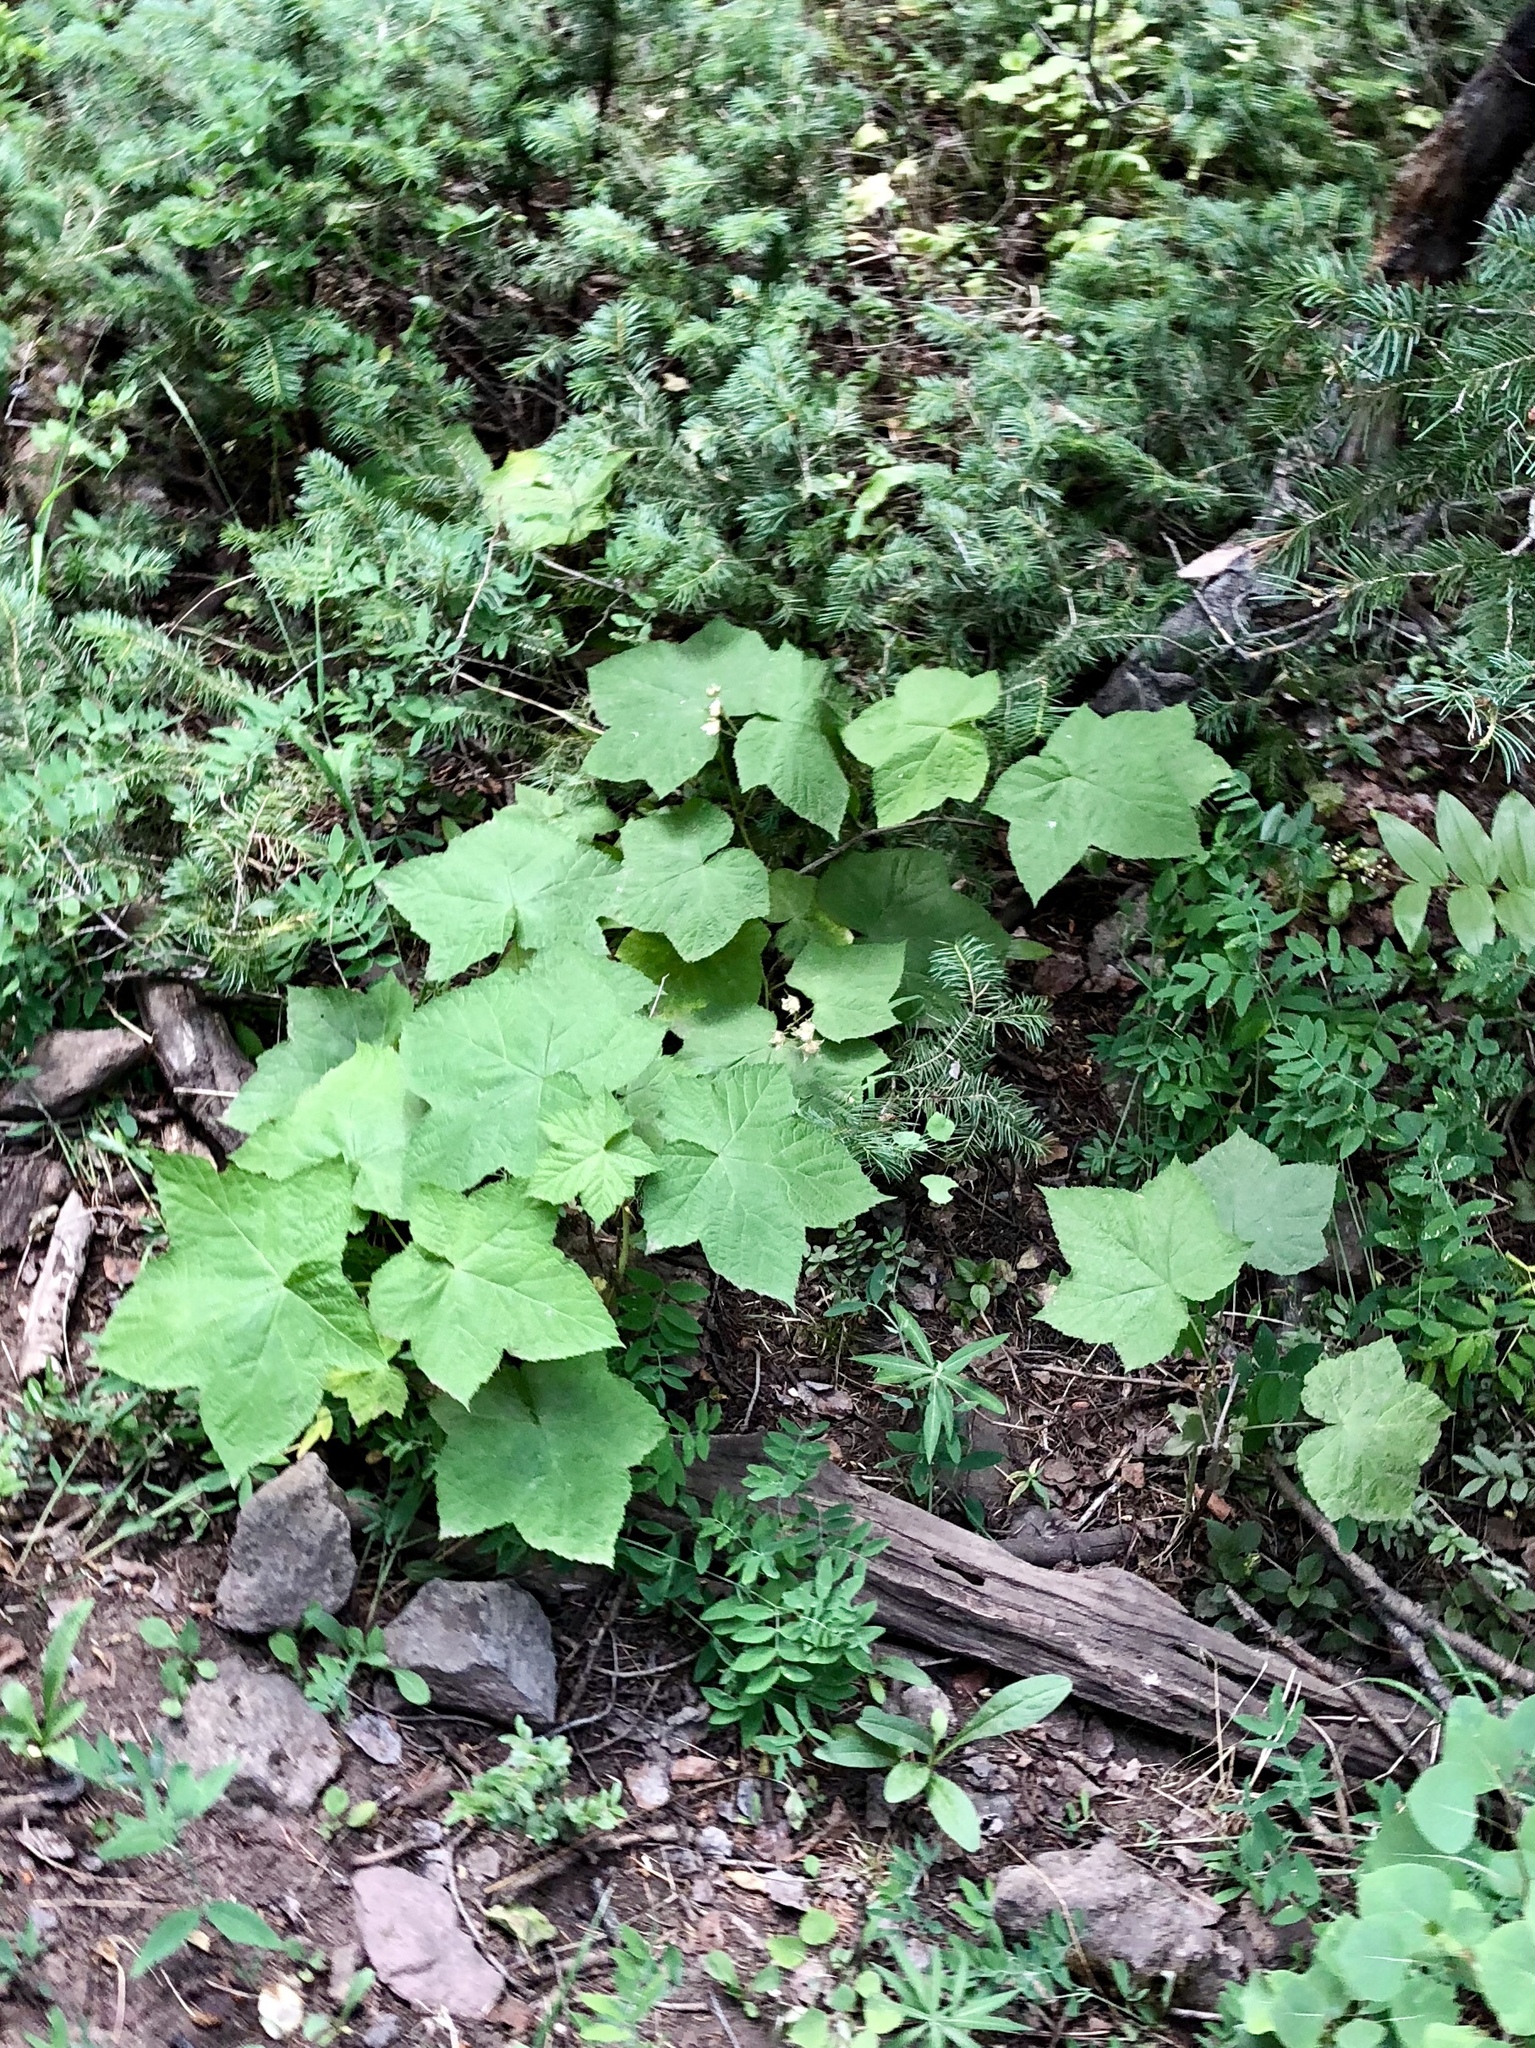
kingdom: Plantae
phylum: Tracheophyta
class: Magnoliopsida
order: Rosales
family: Rosaceae
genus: Rubus
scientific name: Rubus parviflorus
